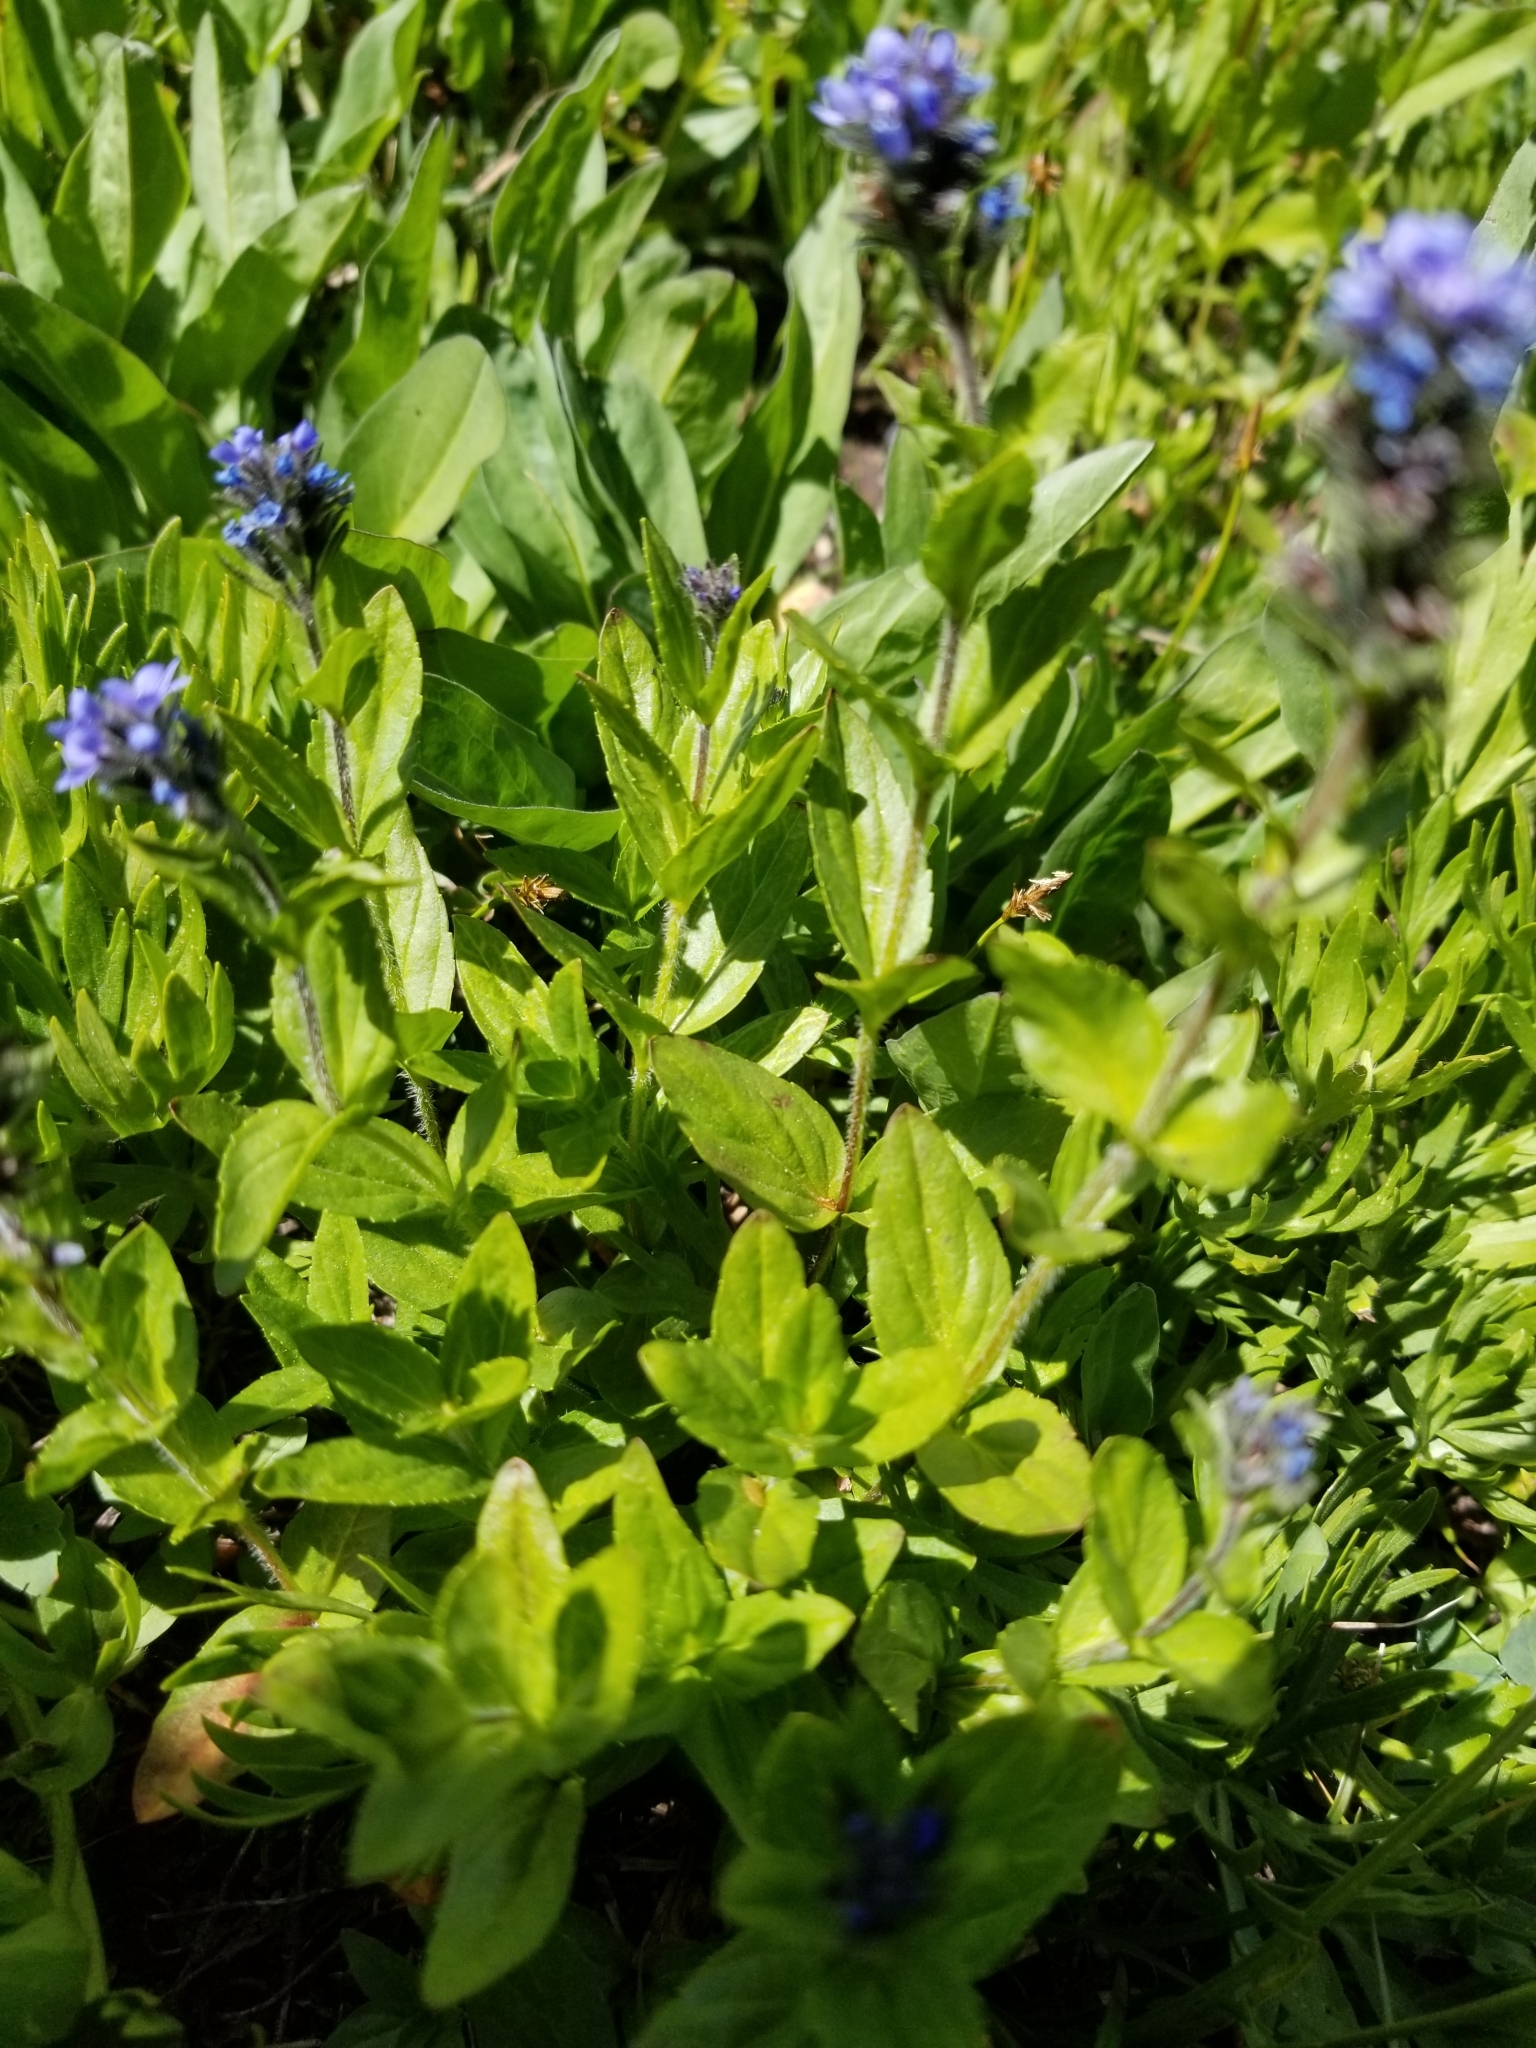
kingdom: Plantae
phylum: Tracheophyta
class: Magnoliopsida
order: Lamiales
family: Plantaginaceae
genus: Veronica
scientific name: Veronica wormskjoldii
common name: American alpine speedwell
